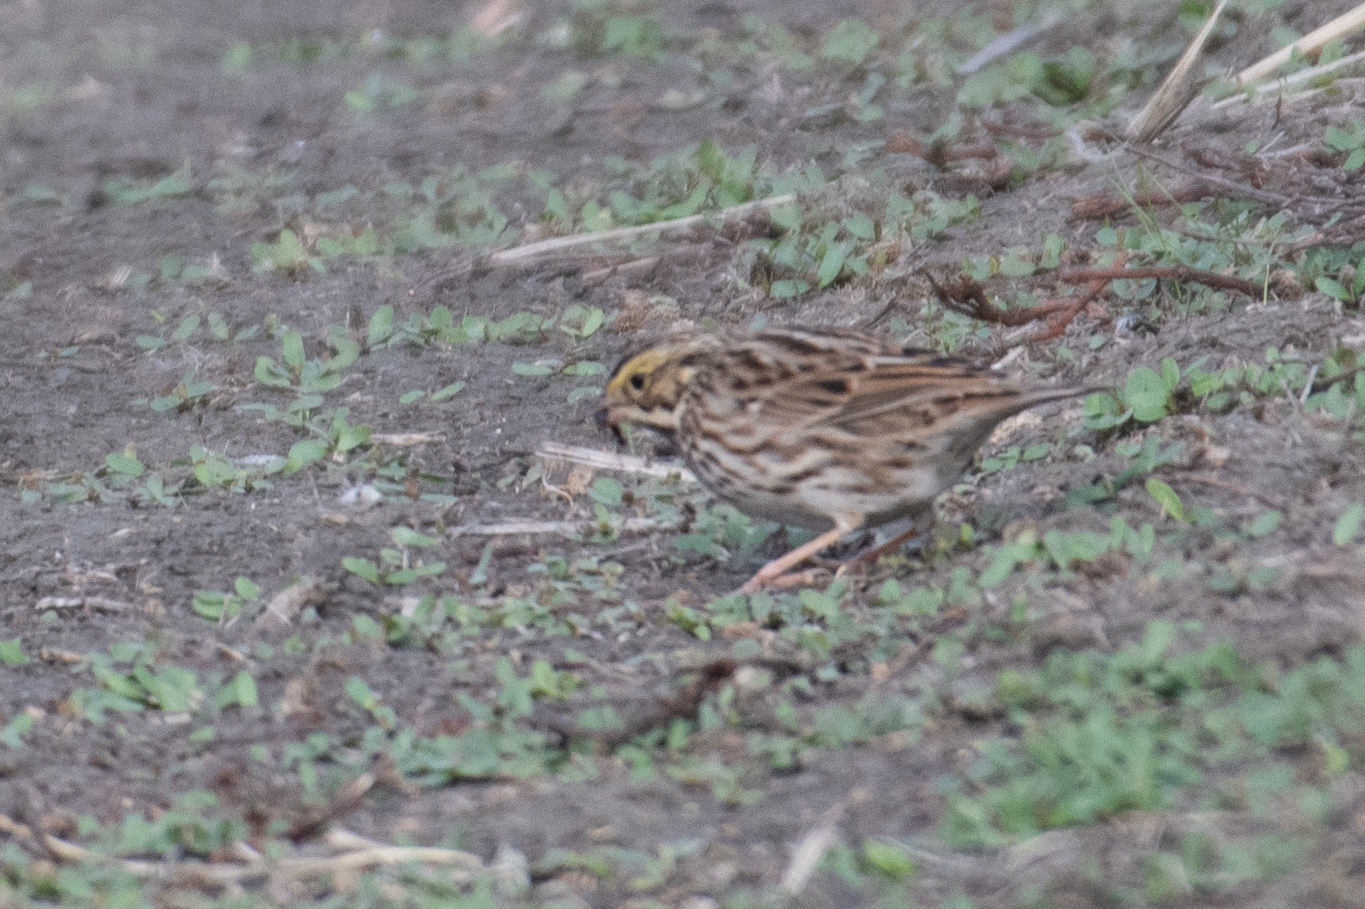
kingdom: Animalia
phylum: Chordata
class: Aves
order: Passeriformes
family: Passerellidae
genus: Passerculus
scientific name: Passerculus sandwichensis
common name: Savannah sparrow
